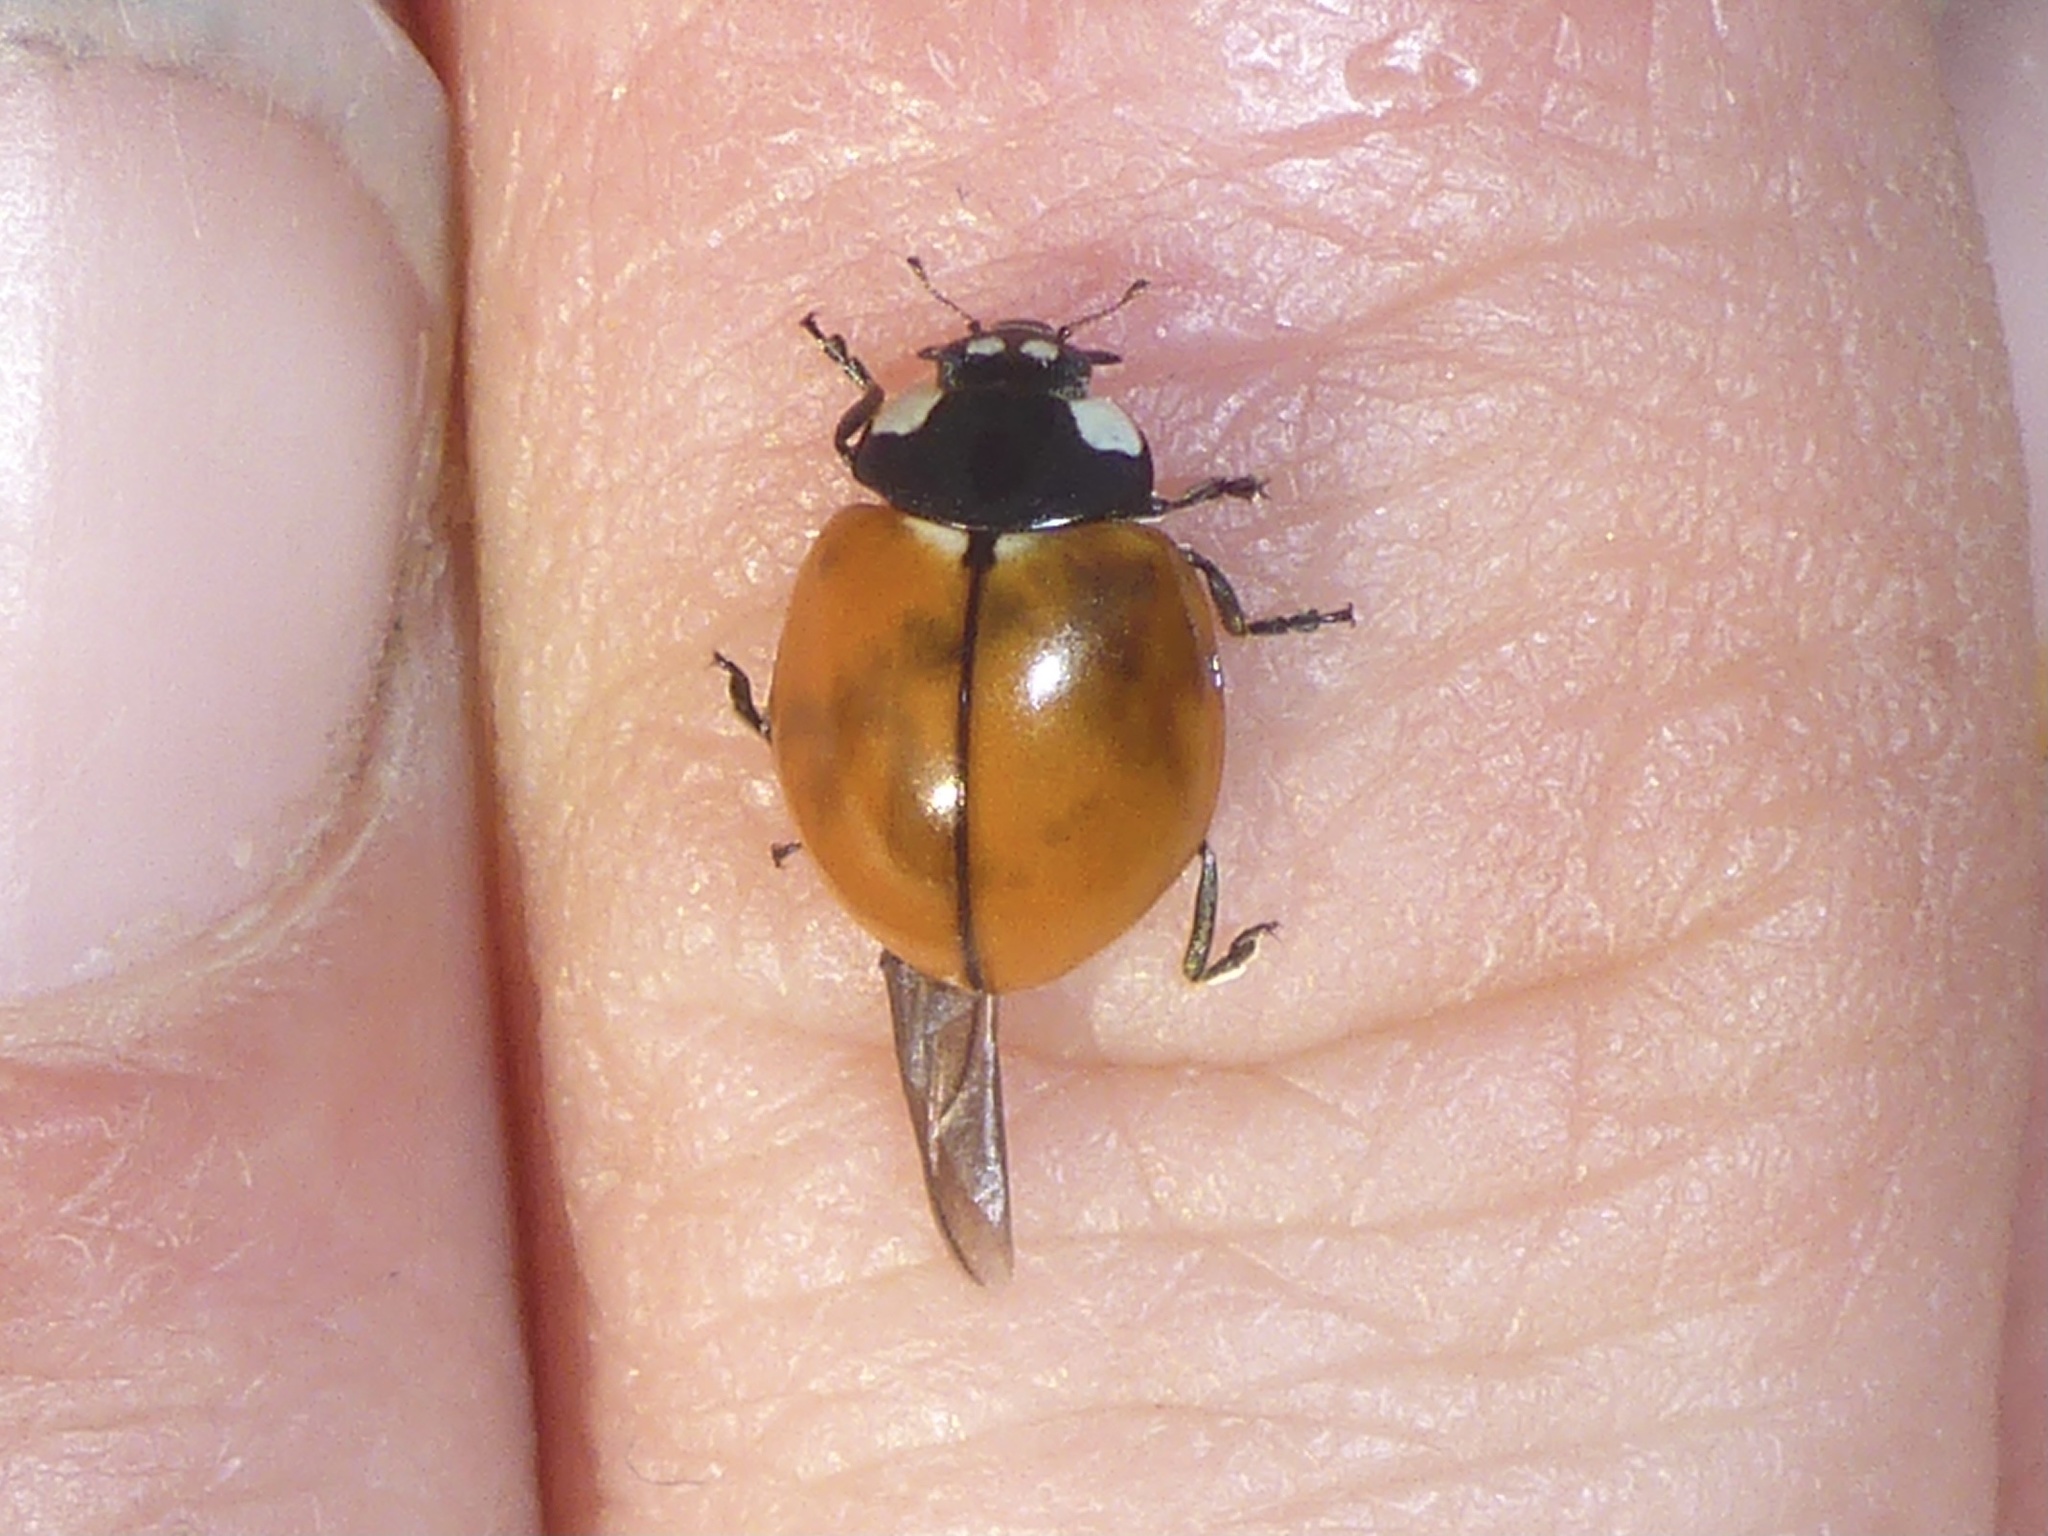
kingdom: Animalia
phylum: Arthropoda
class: Insecta
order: Coleoptera
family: Coccinellidae
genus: Coccinella
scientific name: Coccinella californica
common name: Lady beetle
